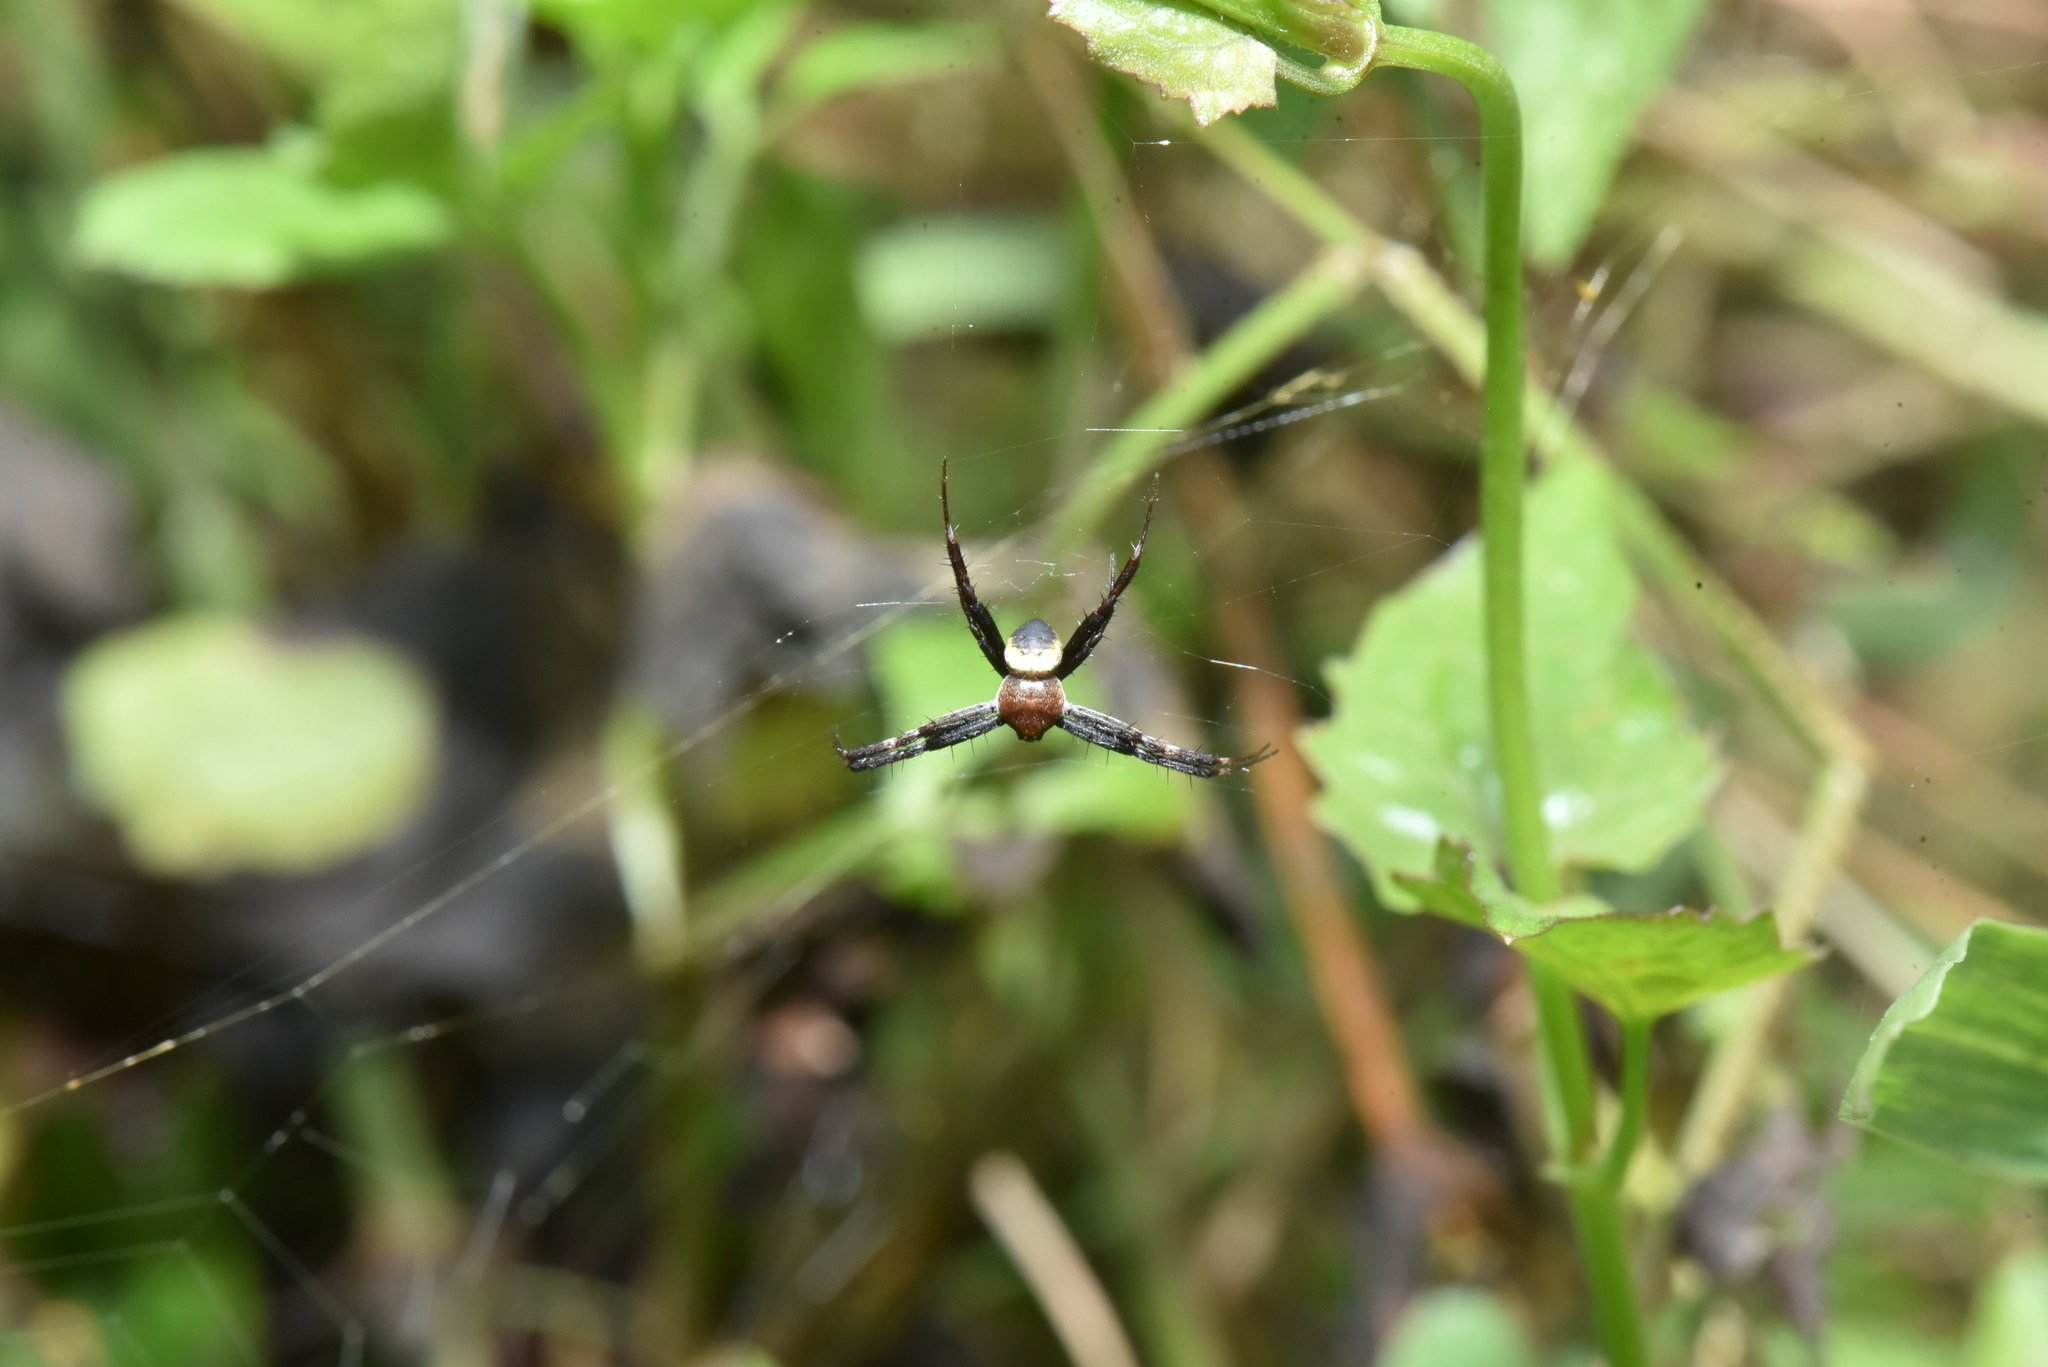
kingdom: Animalia
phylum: Arthropoda
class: Arachnida
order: Araneae
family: Araneidae
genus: Argiope
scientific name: Argiope aemula
